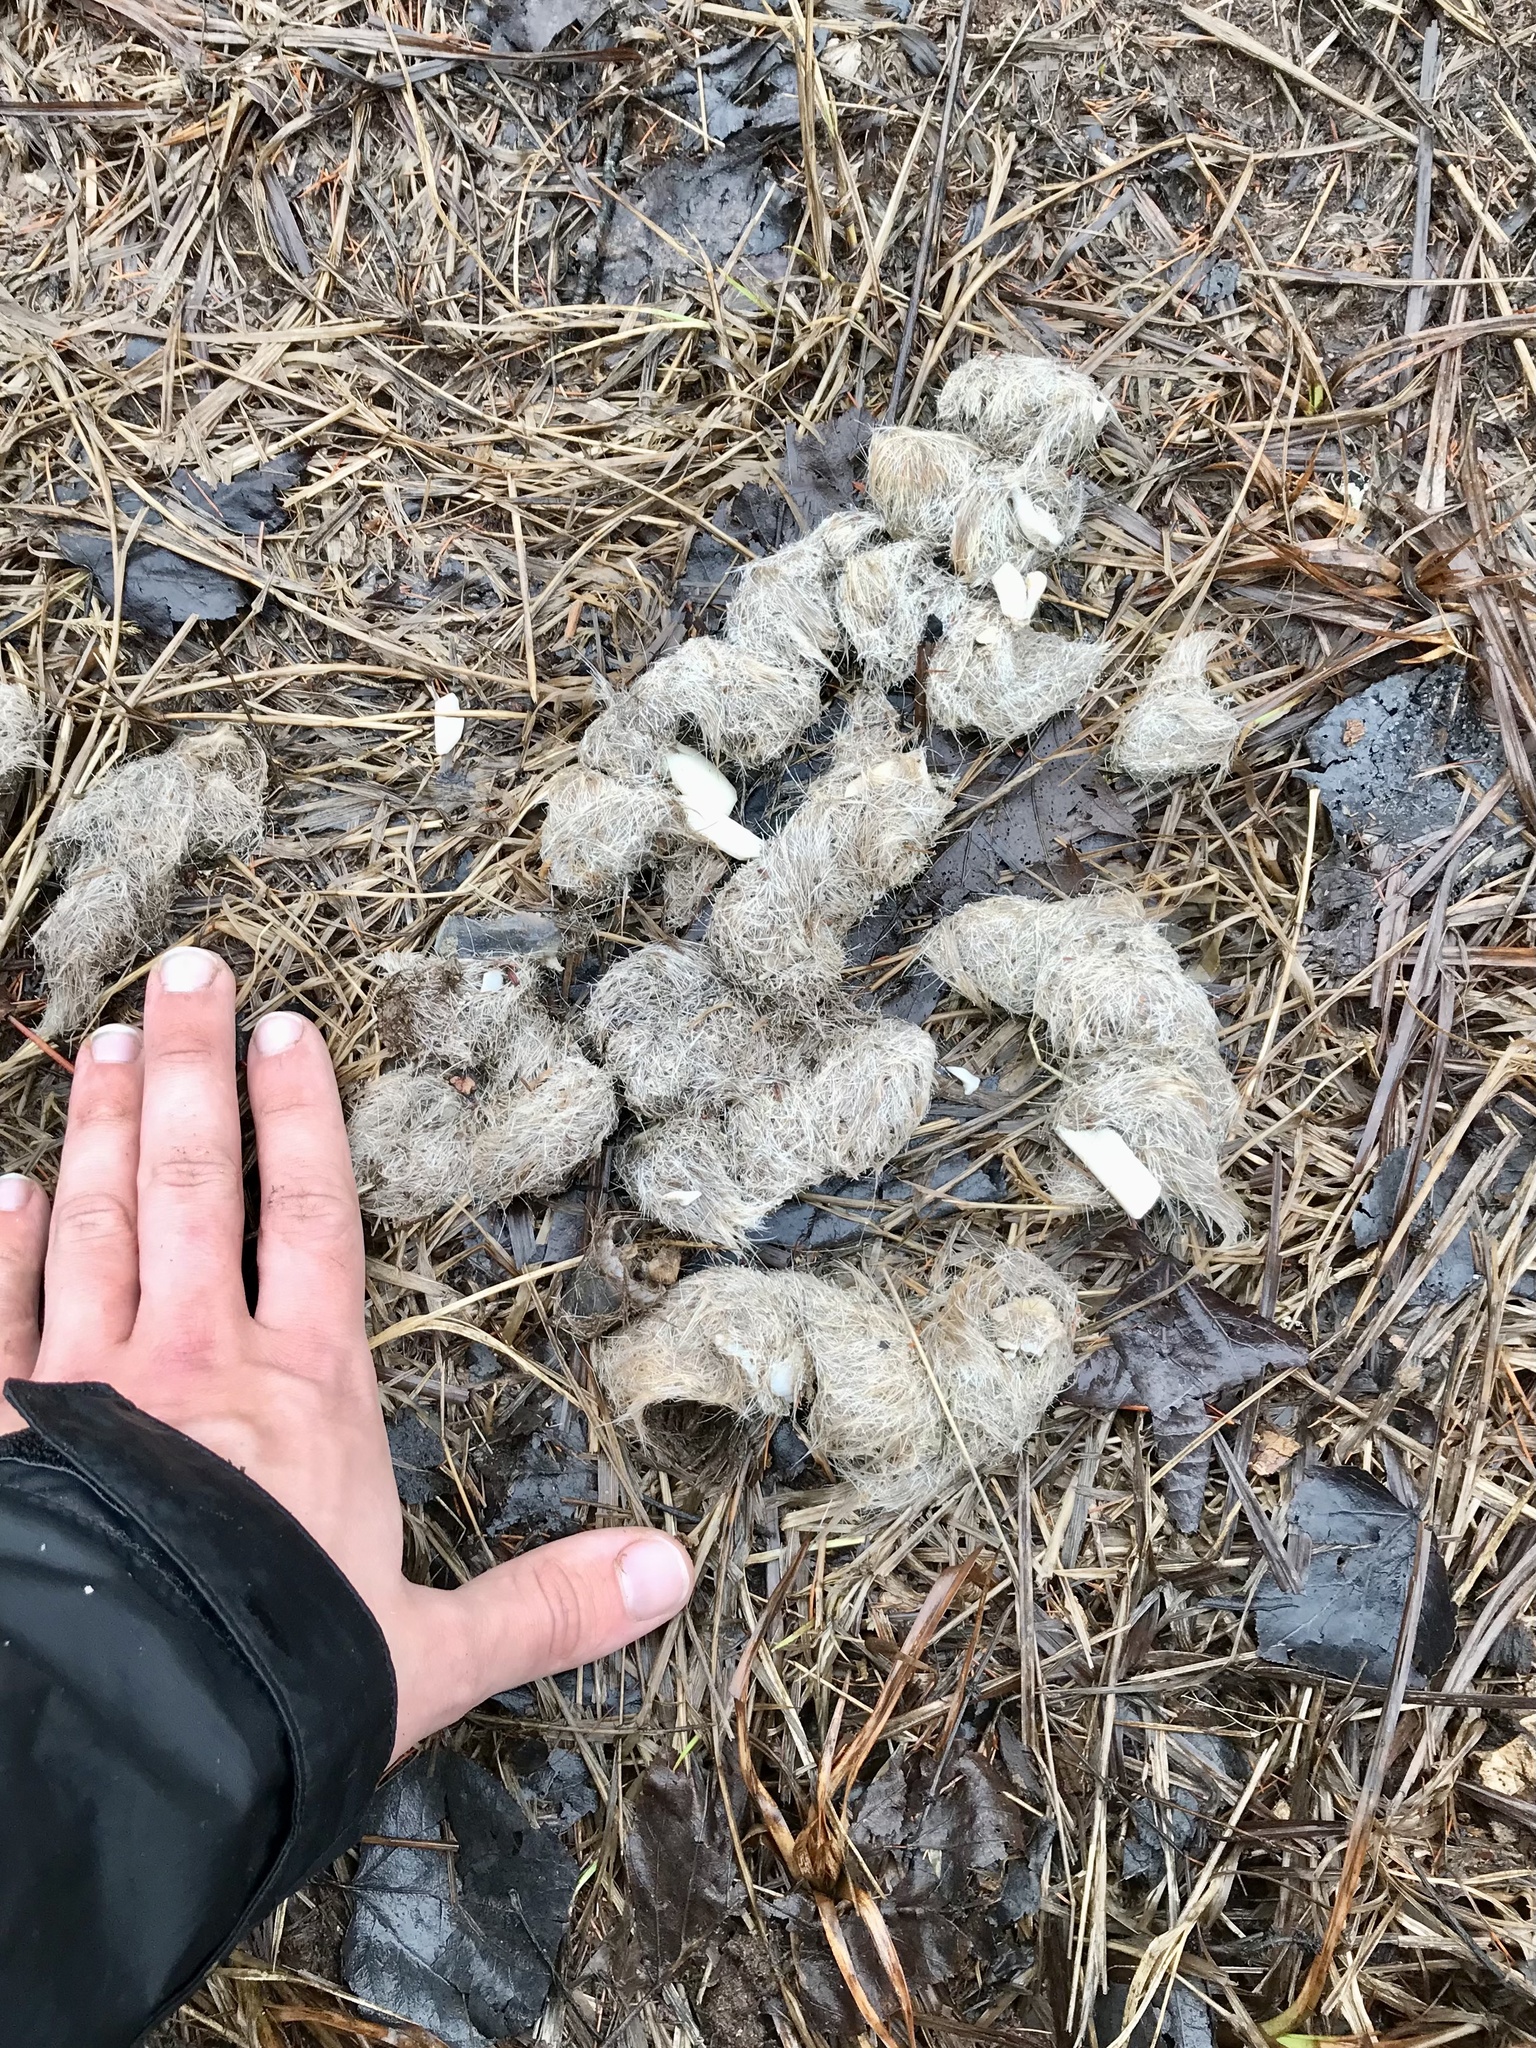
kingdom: Animalia
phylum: Chordata
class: Mammalia
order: Carnivora
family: Canidae
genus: Canis
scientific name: Canis lupus
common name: Gray wolf
